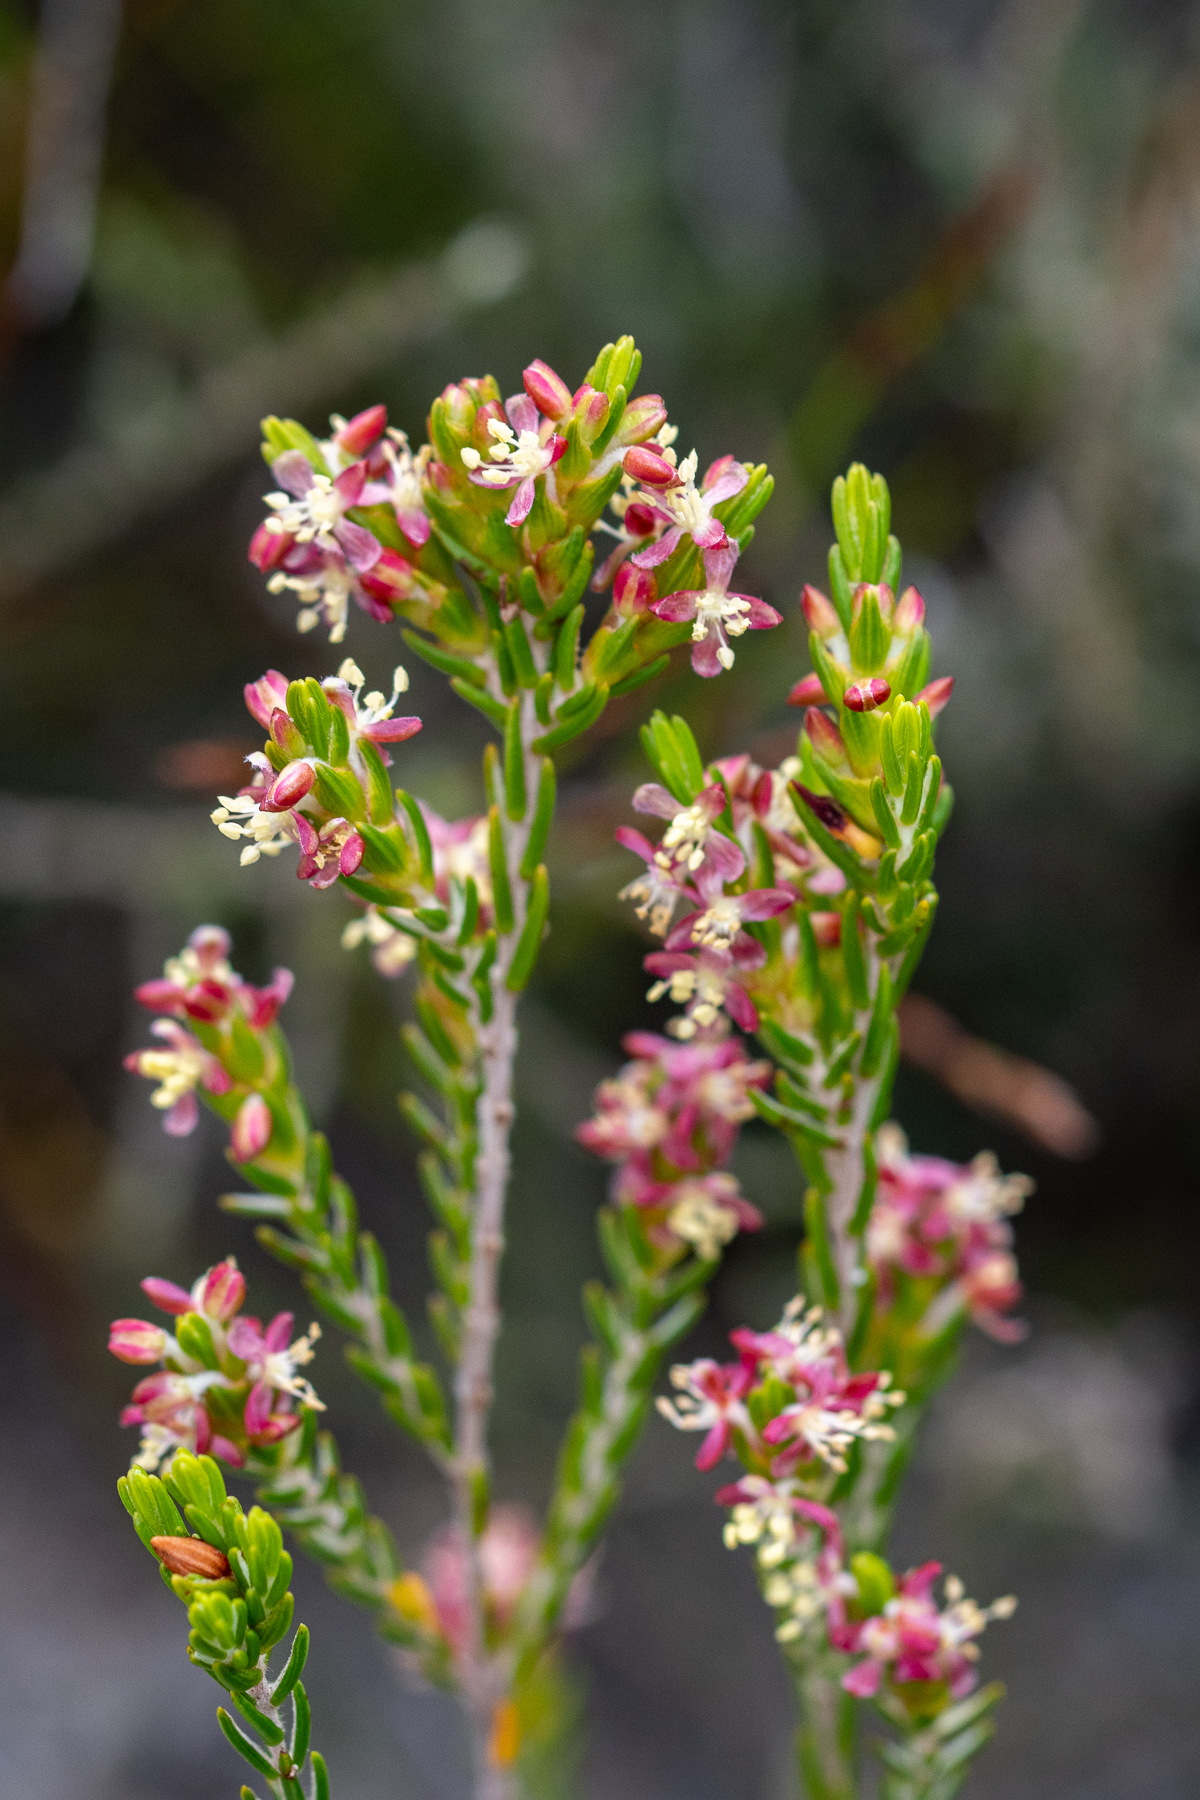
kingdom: Plantae
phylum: Tracheophyta
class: Magnoliopsida
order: Malvales
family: Thymelaeaceae
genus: Passerina
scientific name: Passerina corymbosa
